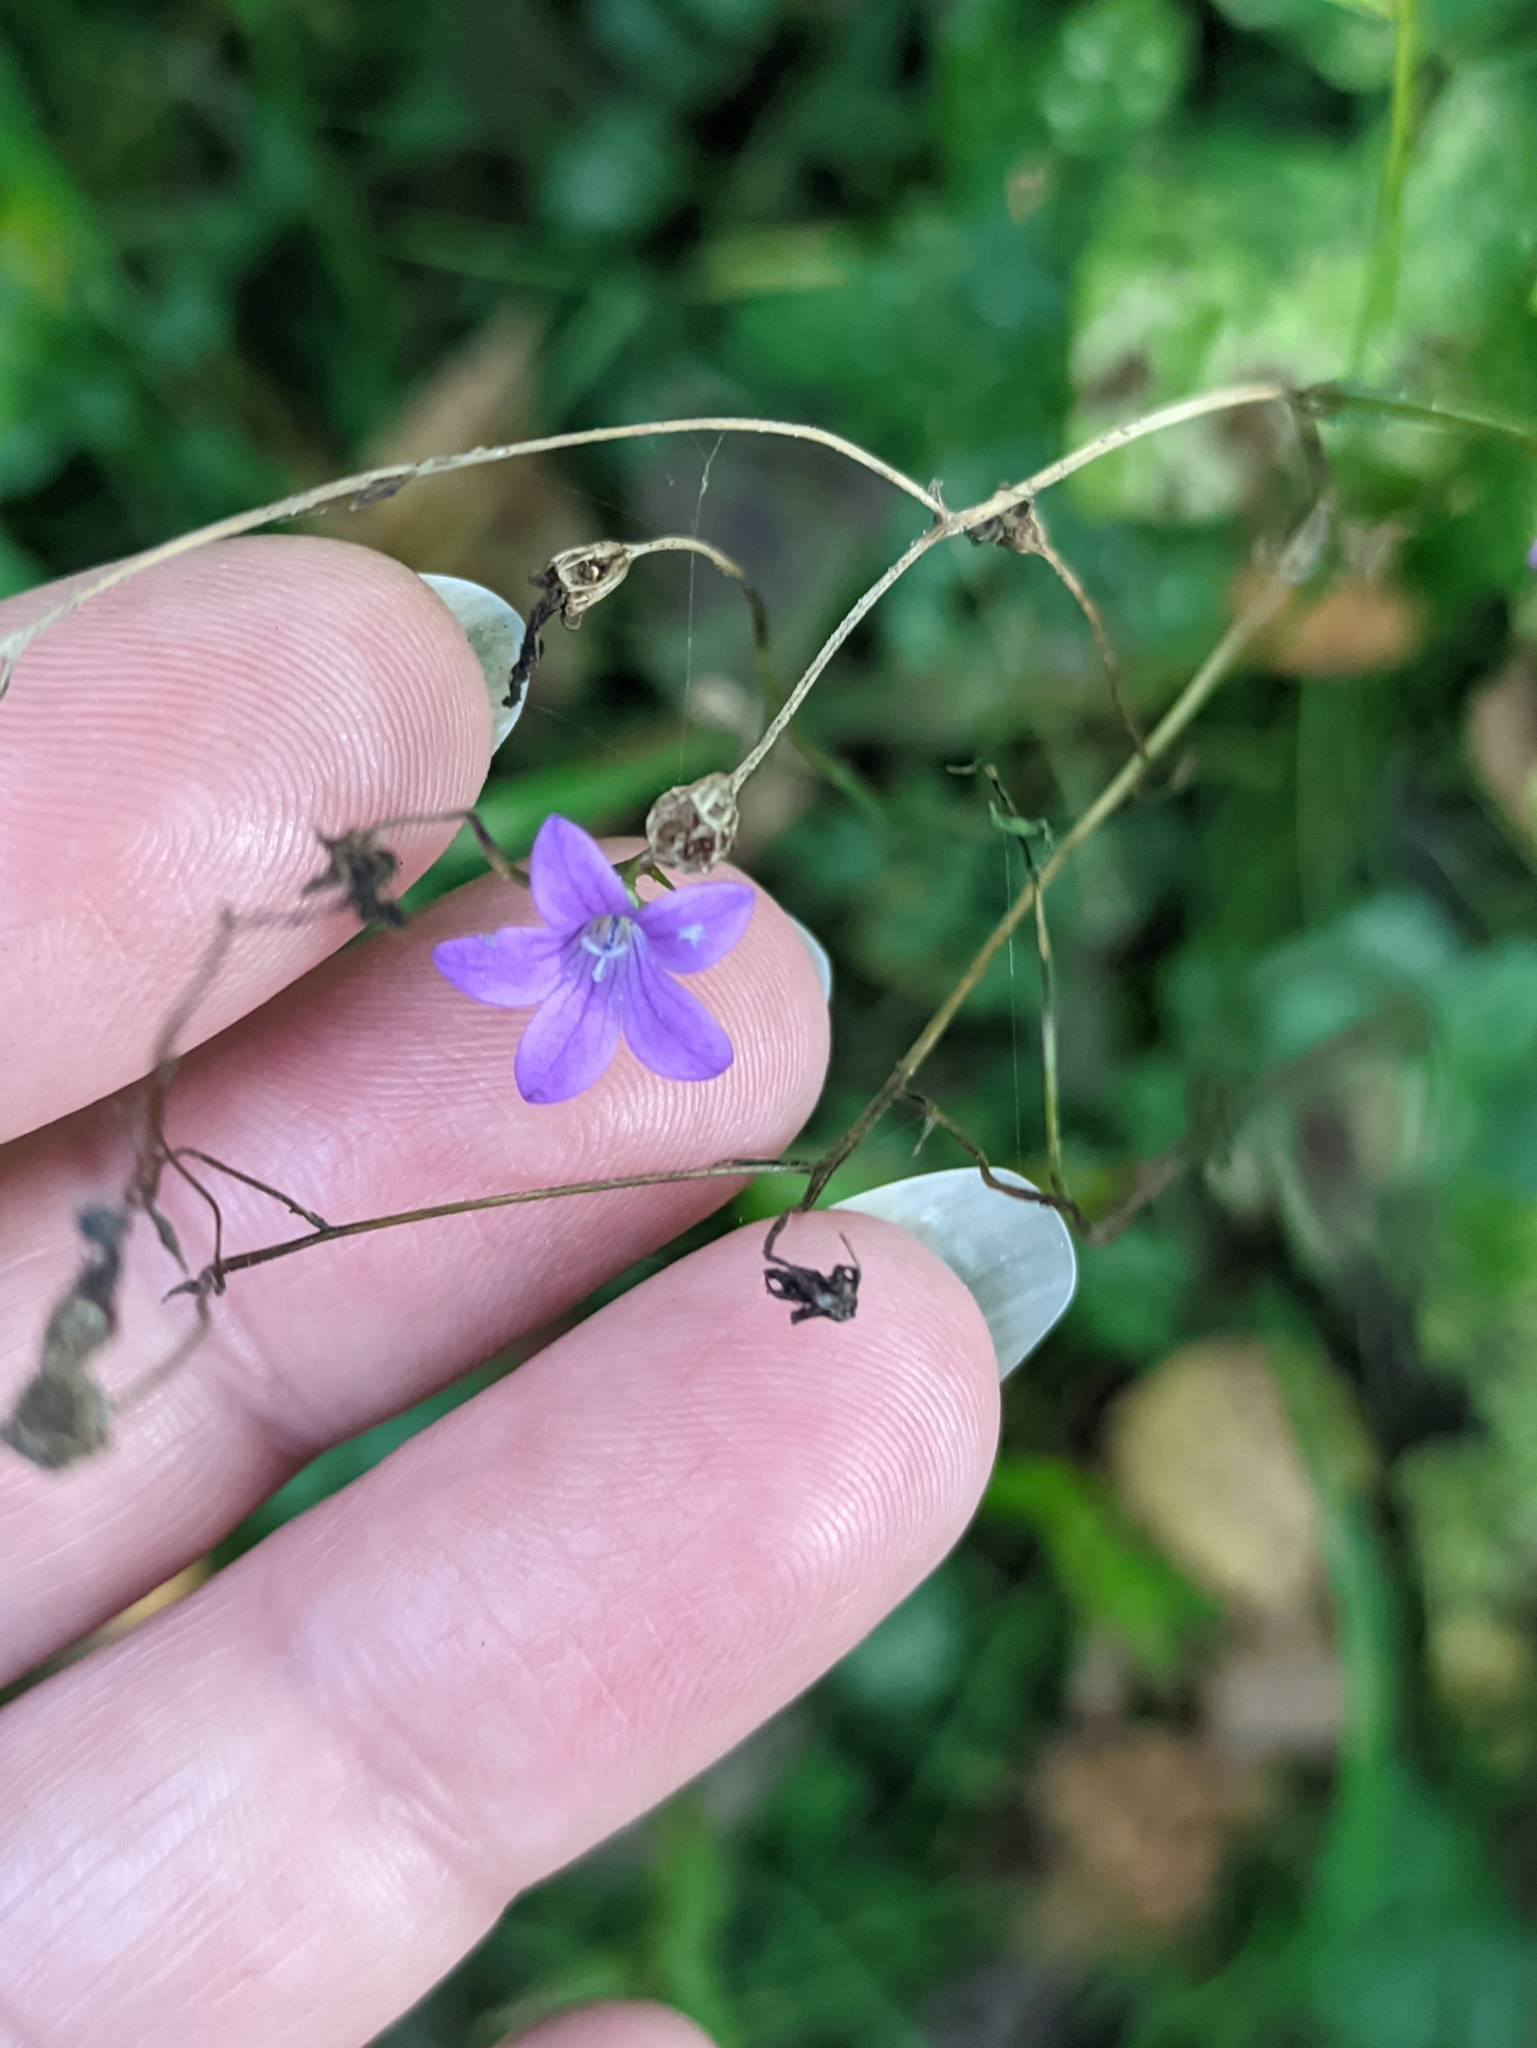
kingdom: Plantae
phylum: Tracheophyta
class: Magnoliopsida
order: Asterales
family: Campanulaceae
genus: Campanula
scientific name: Campanula patula
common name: Spreading bellflower
